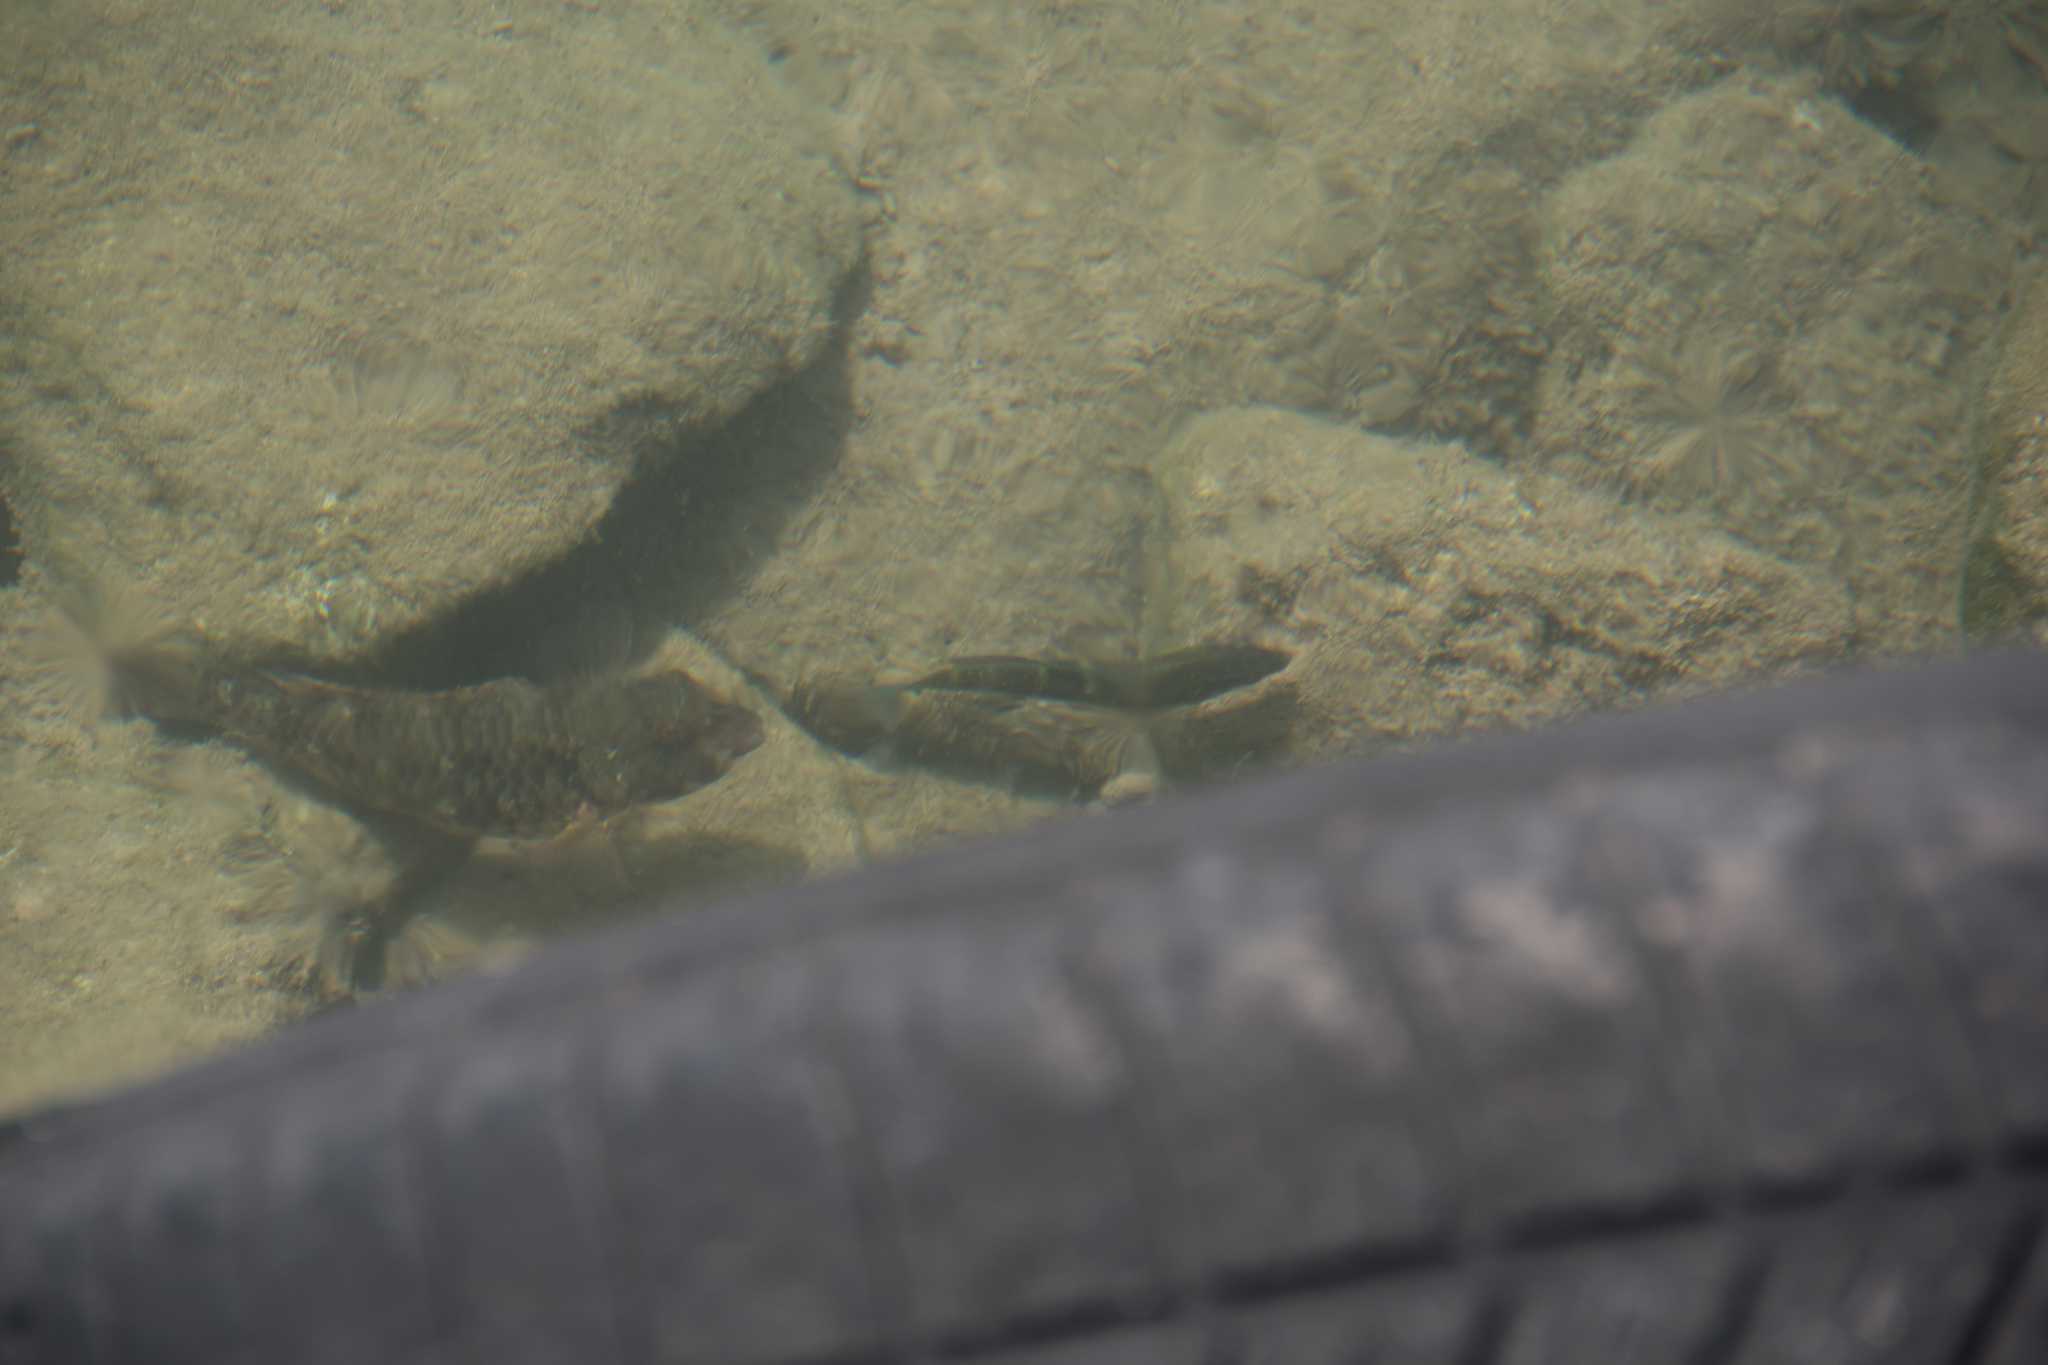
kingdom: Animalia
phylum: Chordata
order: Perciformes
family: Labridae
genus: Thalassoma
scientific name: Thalassoma pavo
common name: Ornate wrasse
